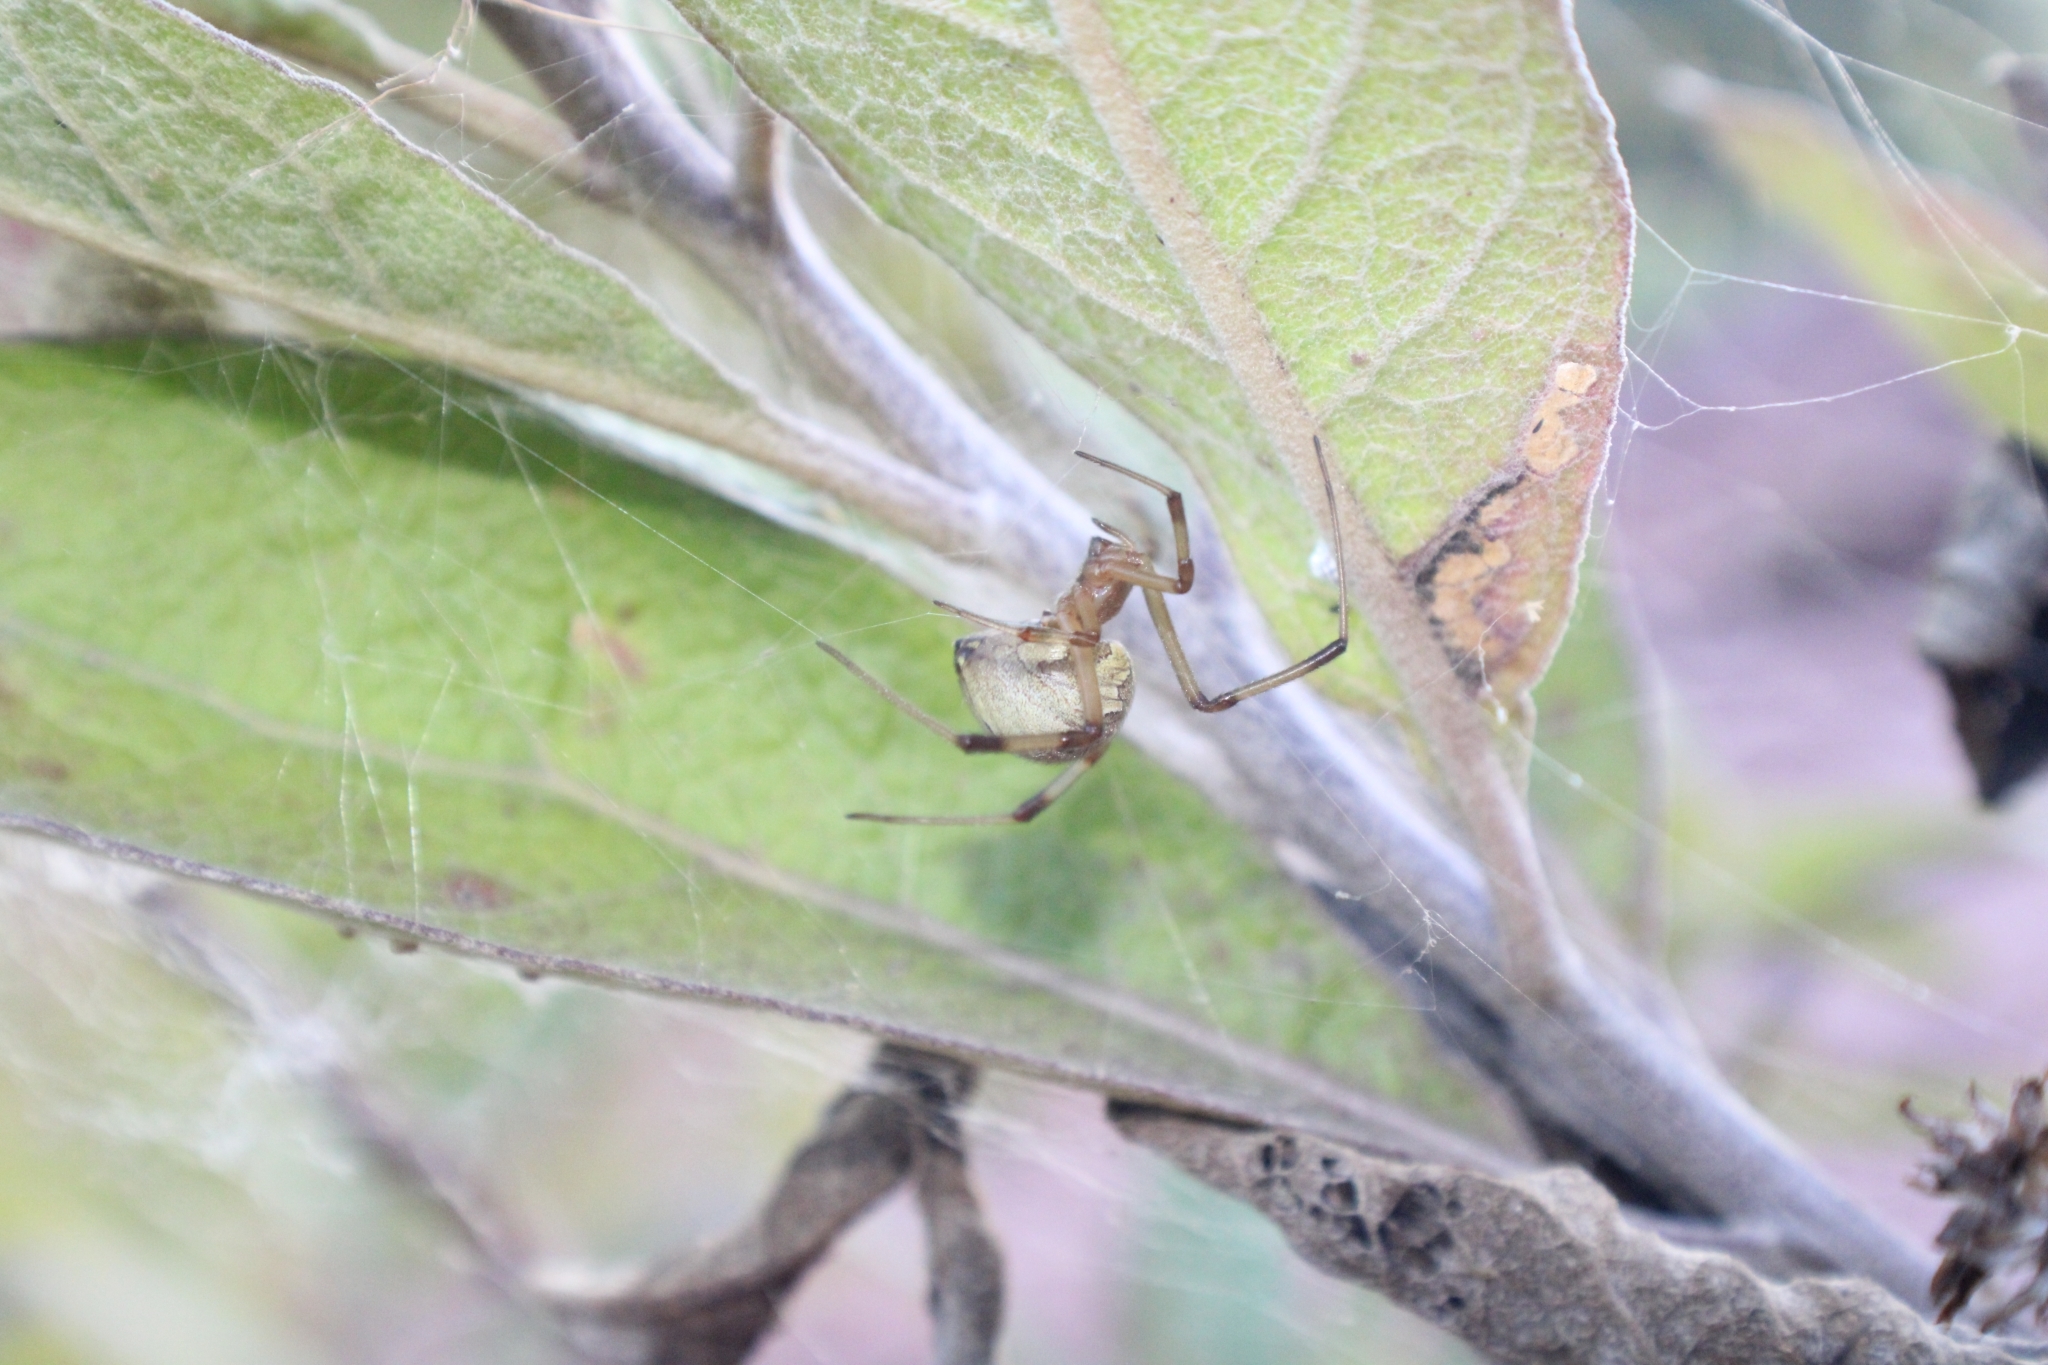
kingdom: Animalia
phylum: Arthropoda
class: Arachnida
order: Araneae
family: Theridiidae
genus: Latrodectus
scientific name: Latrodectus geometricus
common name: Brown widow spider
